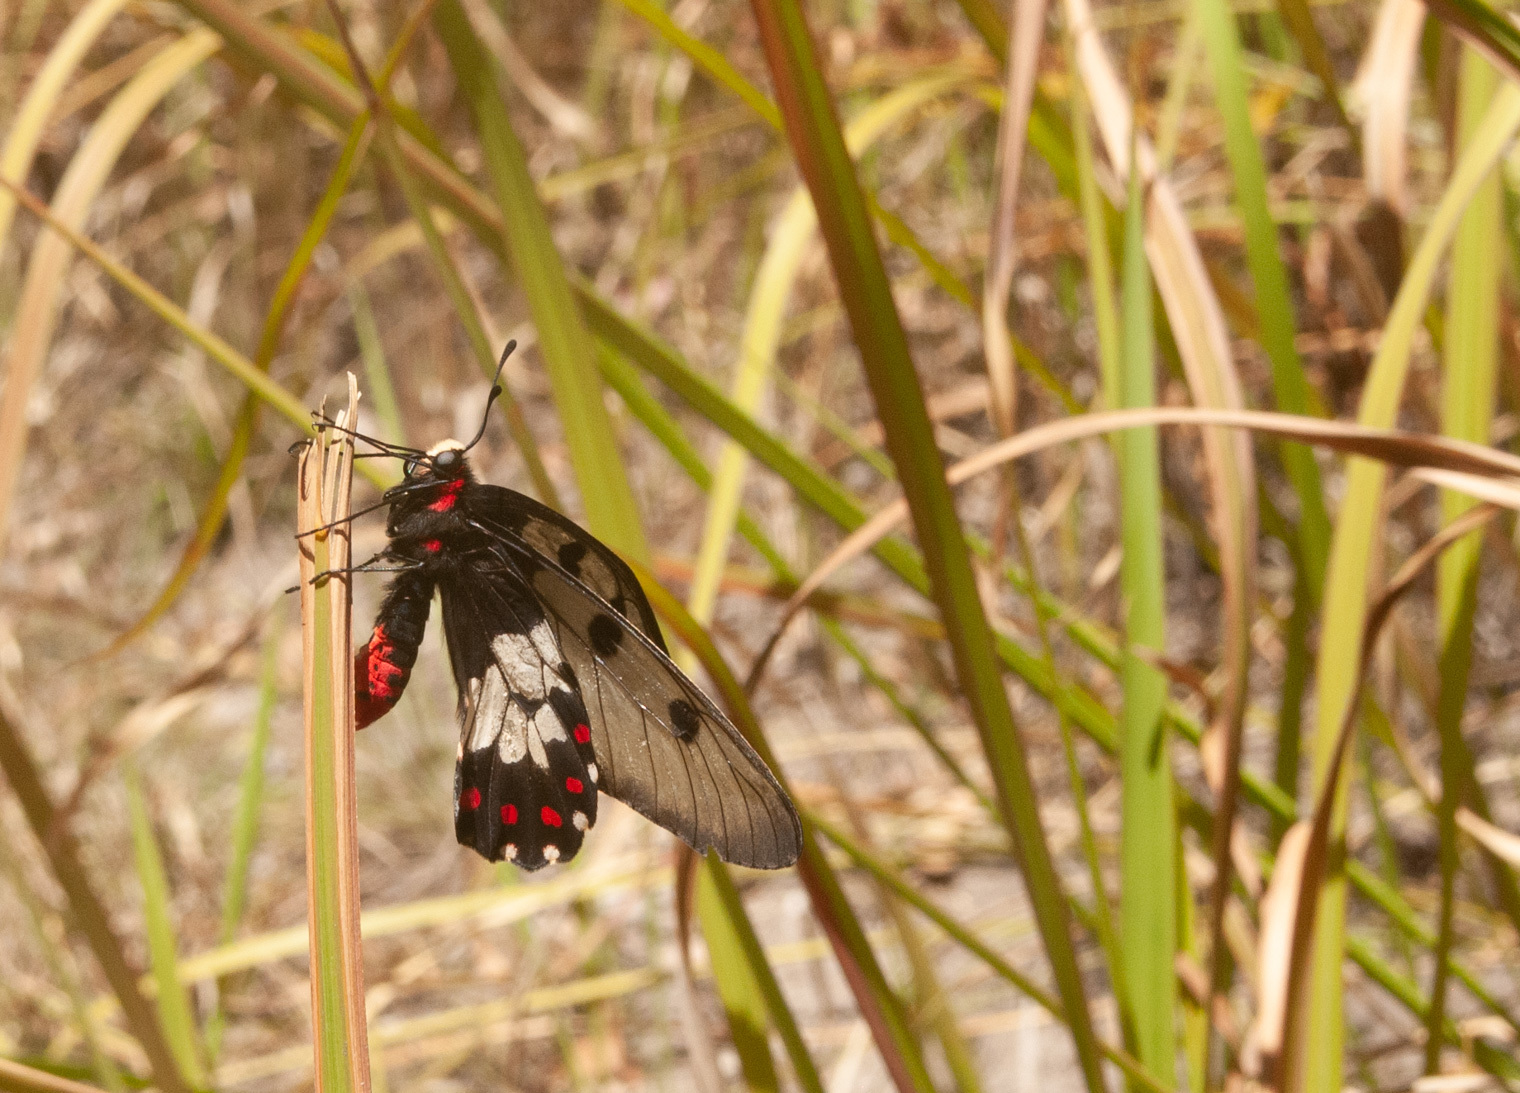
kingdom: Animalia
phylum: Arthropoda
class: Insecta
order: Lepidoptera
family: Papilionidae
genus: Cressida
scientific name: Cressida cressida
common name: Big greasy
